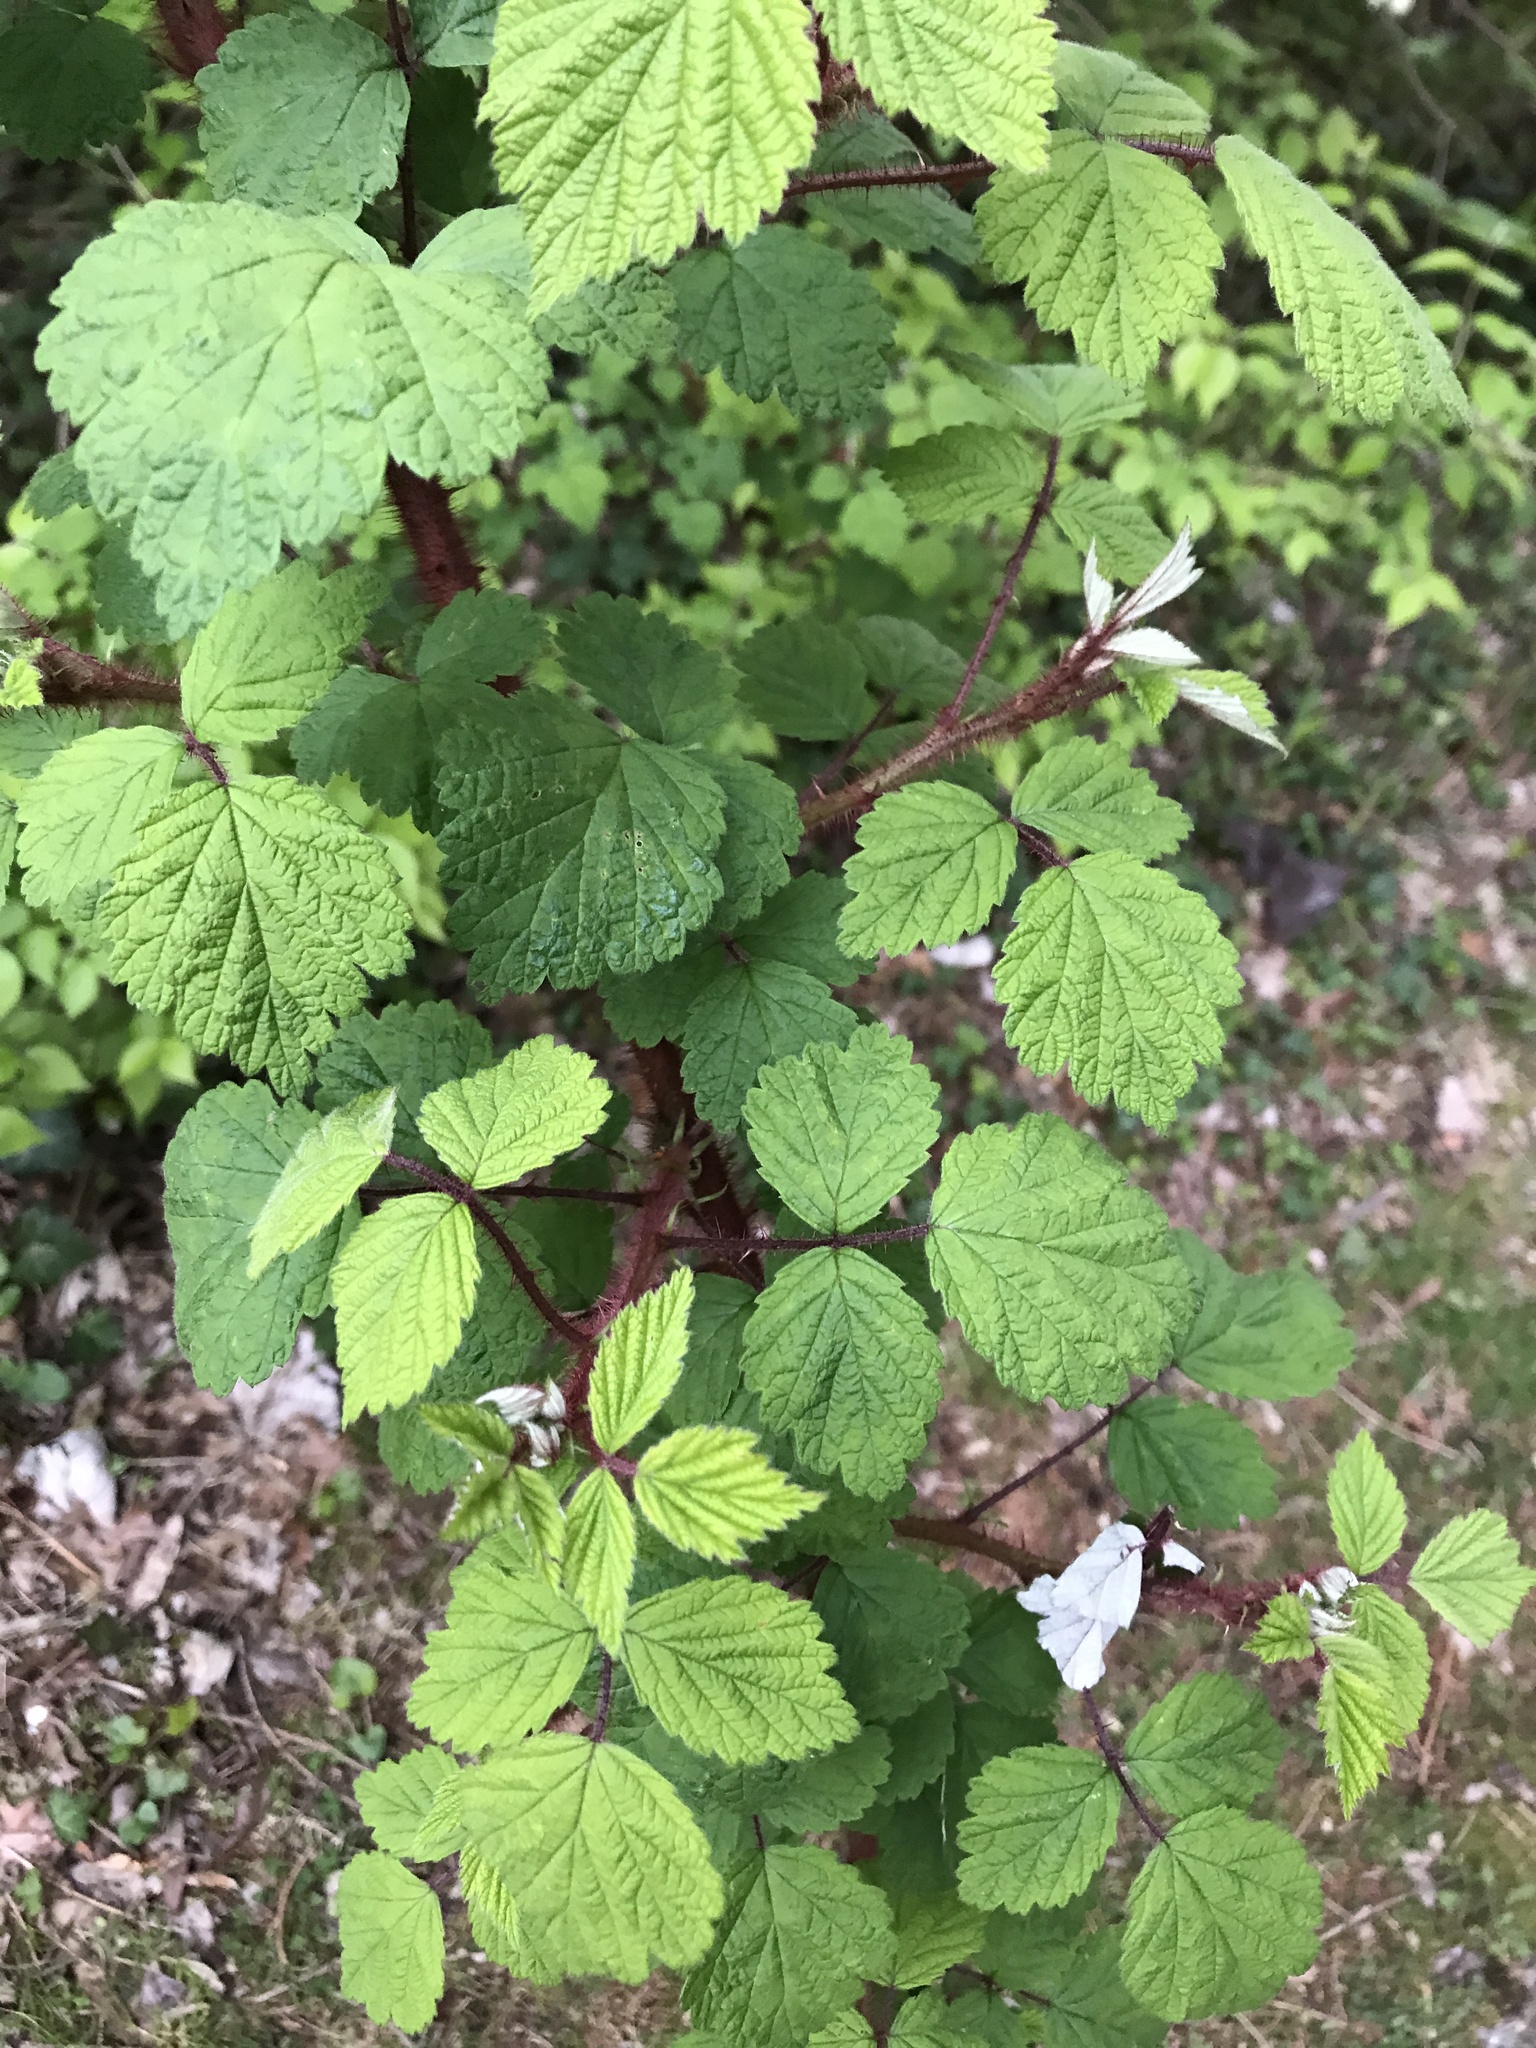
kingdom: Plantae
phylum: Tracheophyta
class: Magnoliopsida
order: Rosales
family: Rosaceae
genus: Rubus
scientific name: Rubus phoenicolasius
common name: Japanese wineberry
